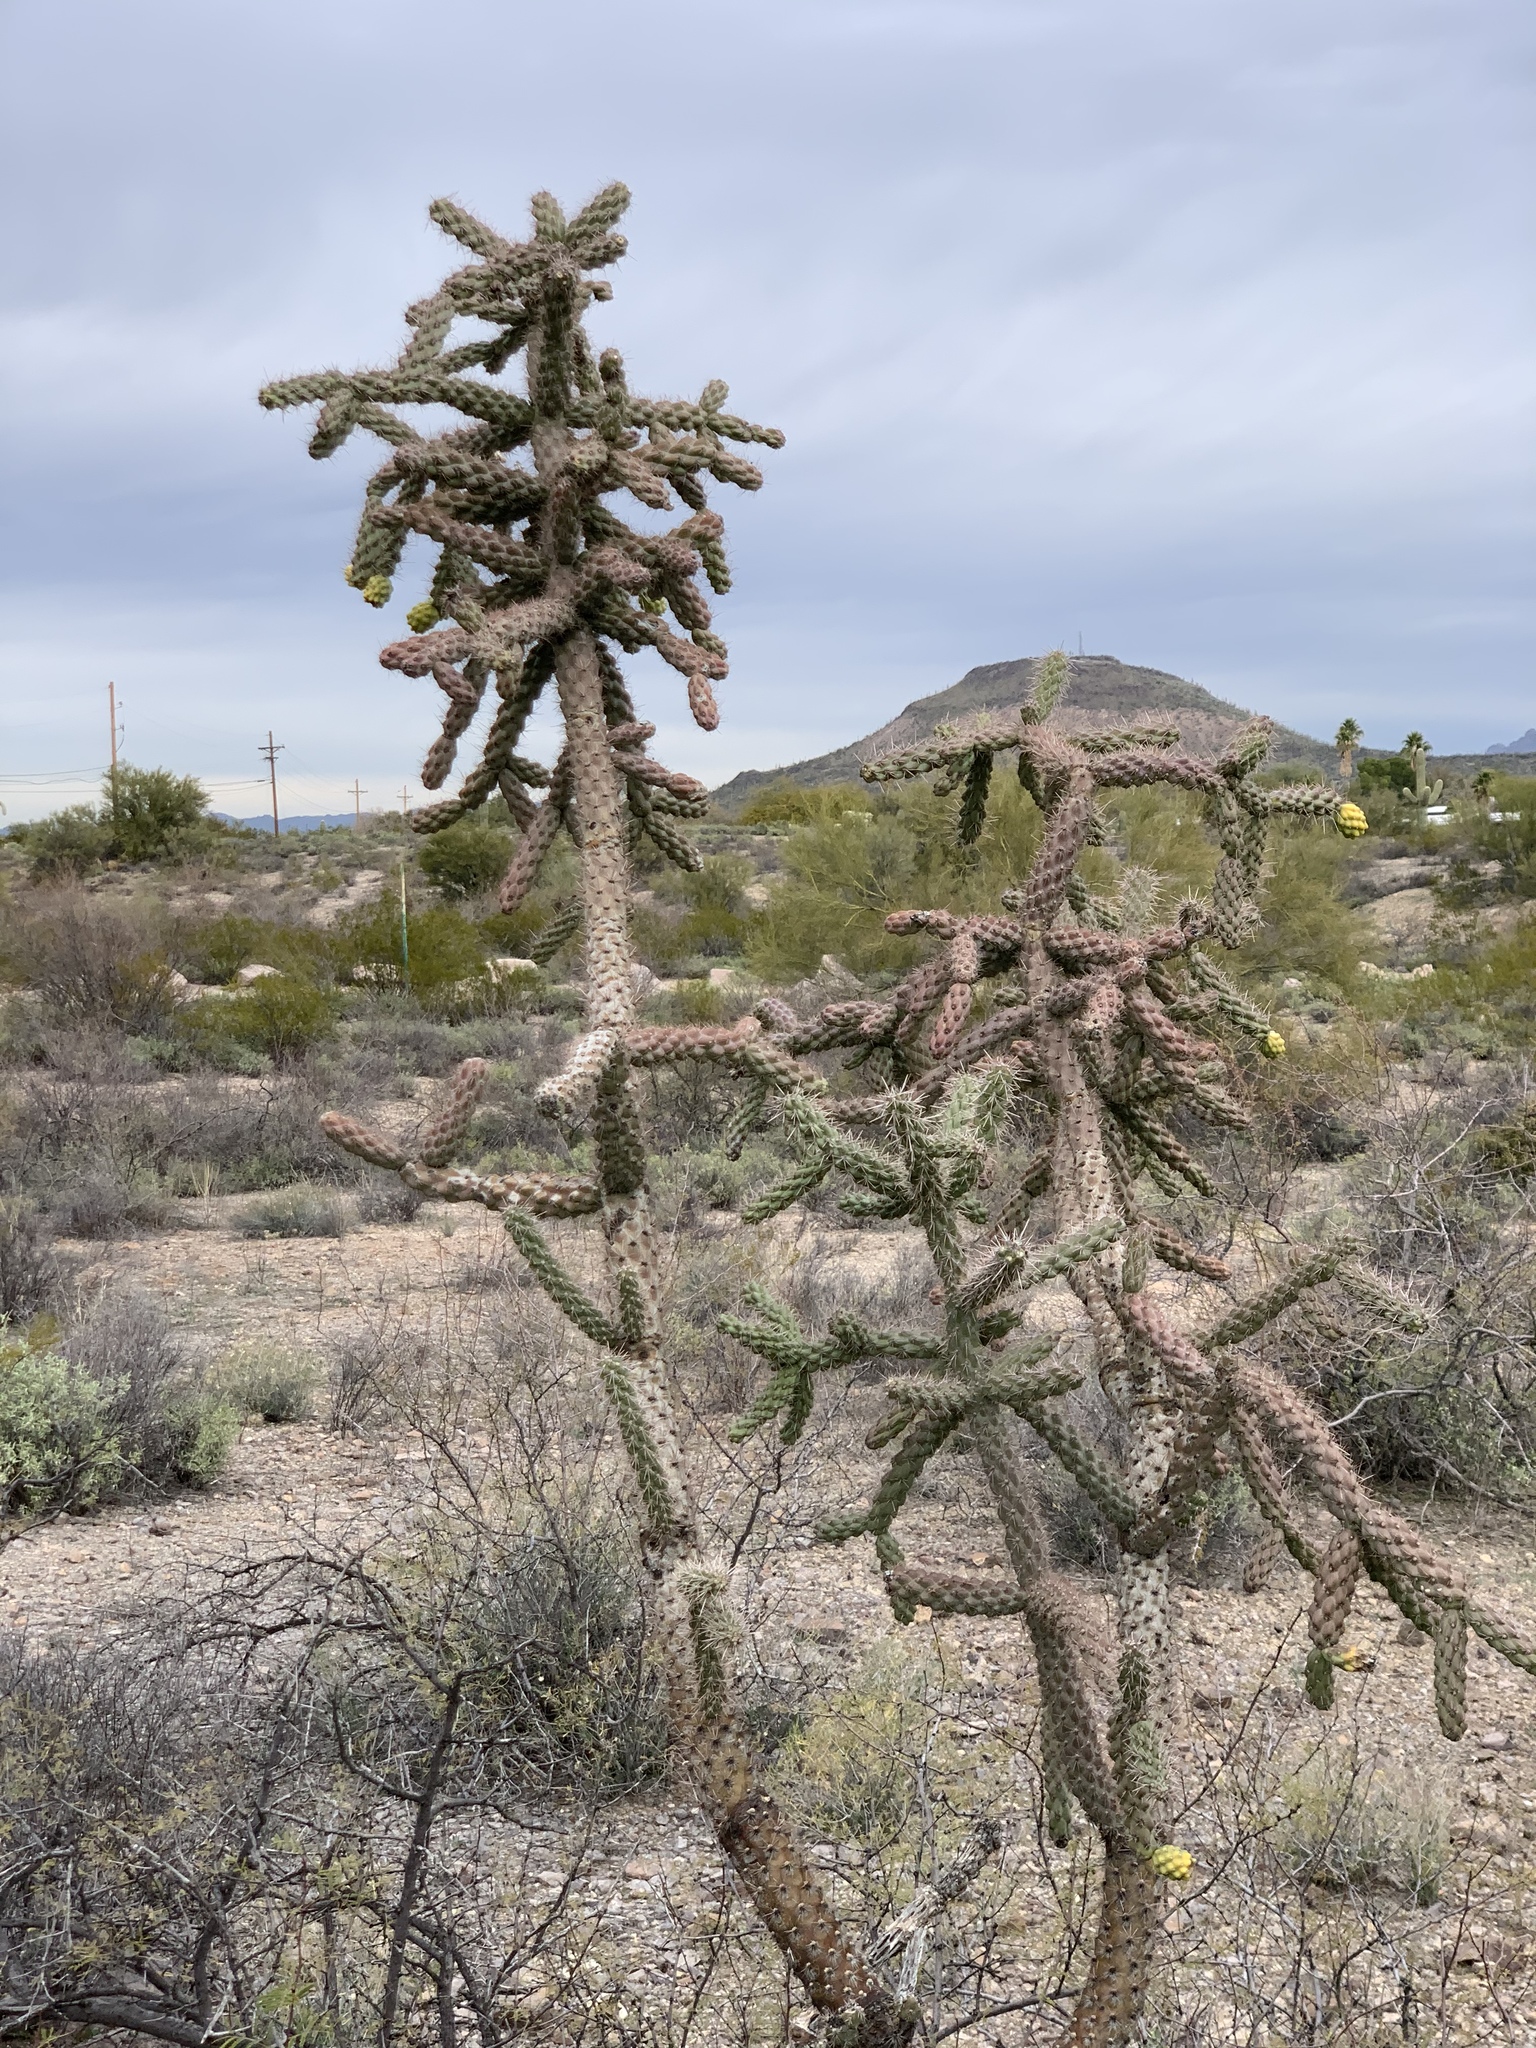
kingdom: Plantae
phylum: Tracheophyta
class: Magnoliopsida
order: Caryophyllales
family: Cactaceae
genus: Cylindropuntia
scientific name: Cylindropuntia imbricata
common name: Candelabrum cactus
